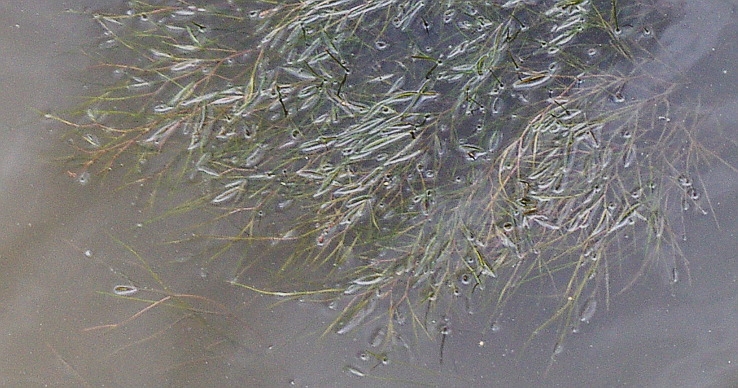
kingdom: Plantae
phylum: Tracheophyta
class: Liliopsida
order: Alismatales
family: Potamogetonaceae
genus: Stuckenia
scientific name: Stuckenia pectinata
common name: Sago pondweed
